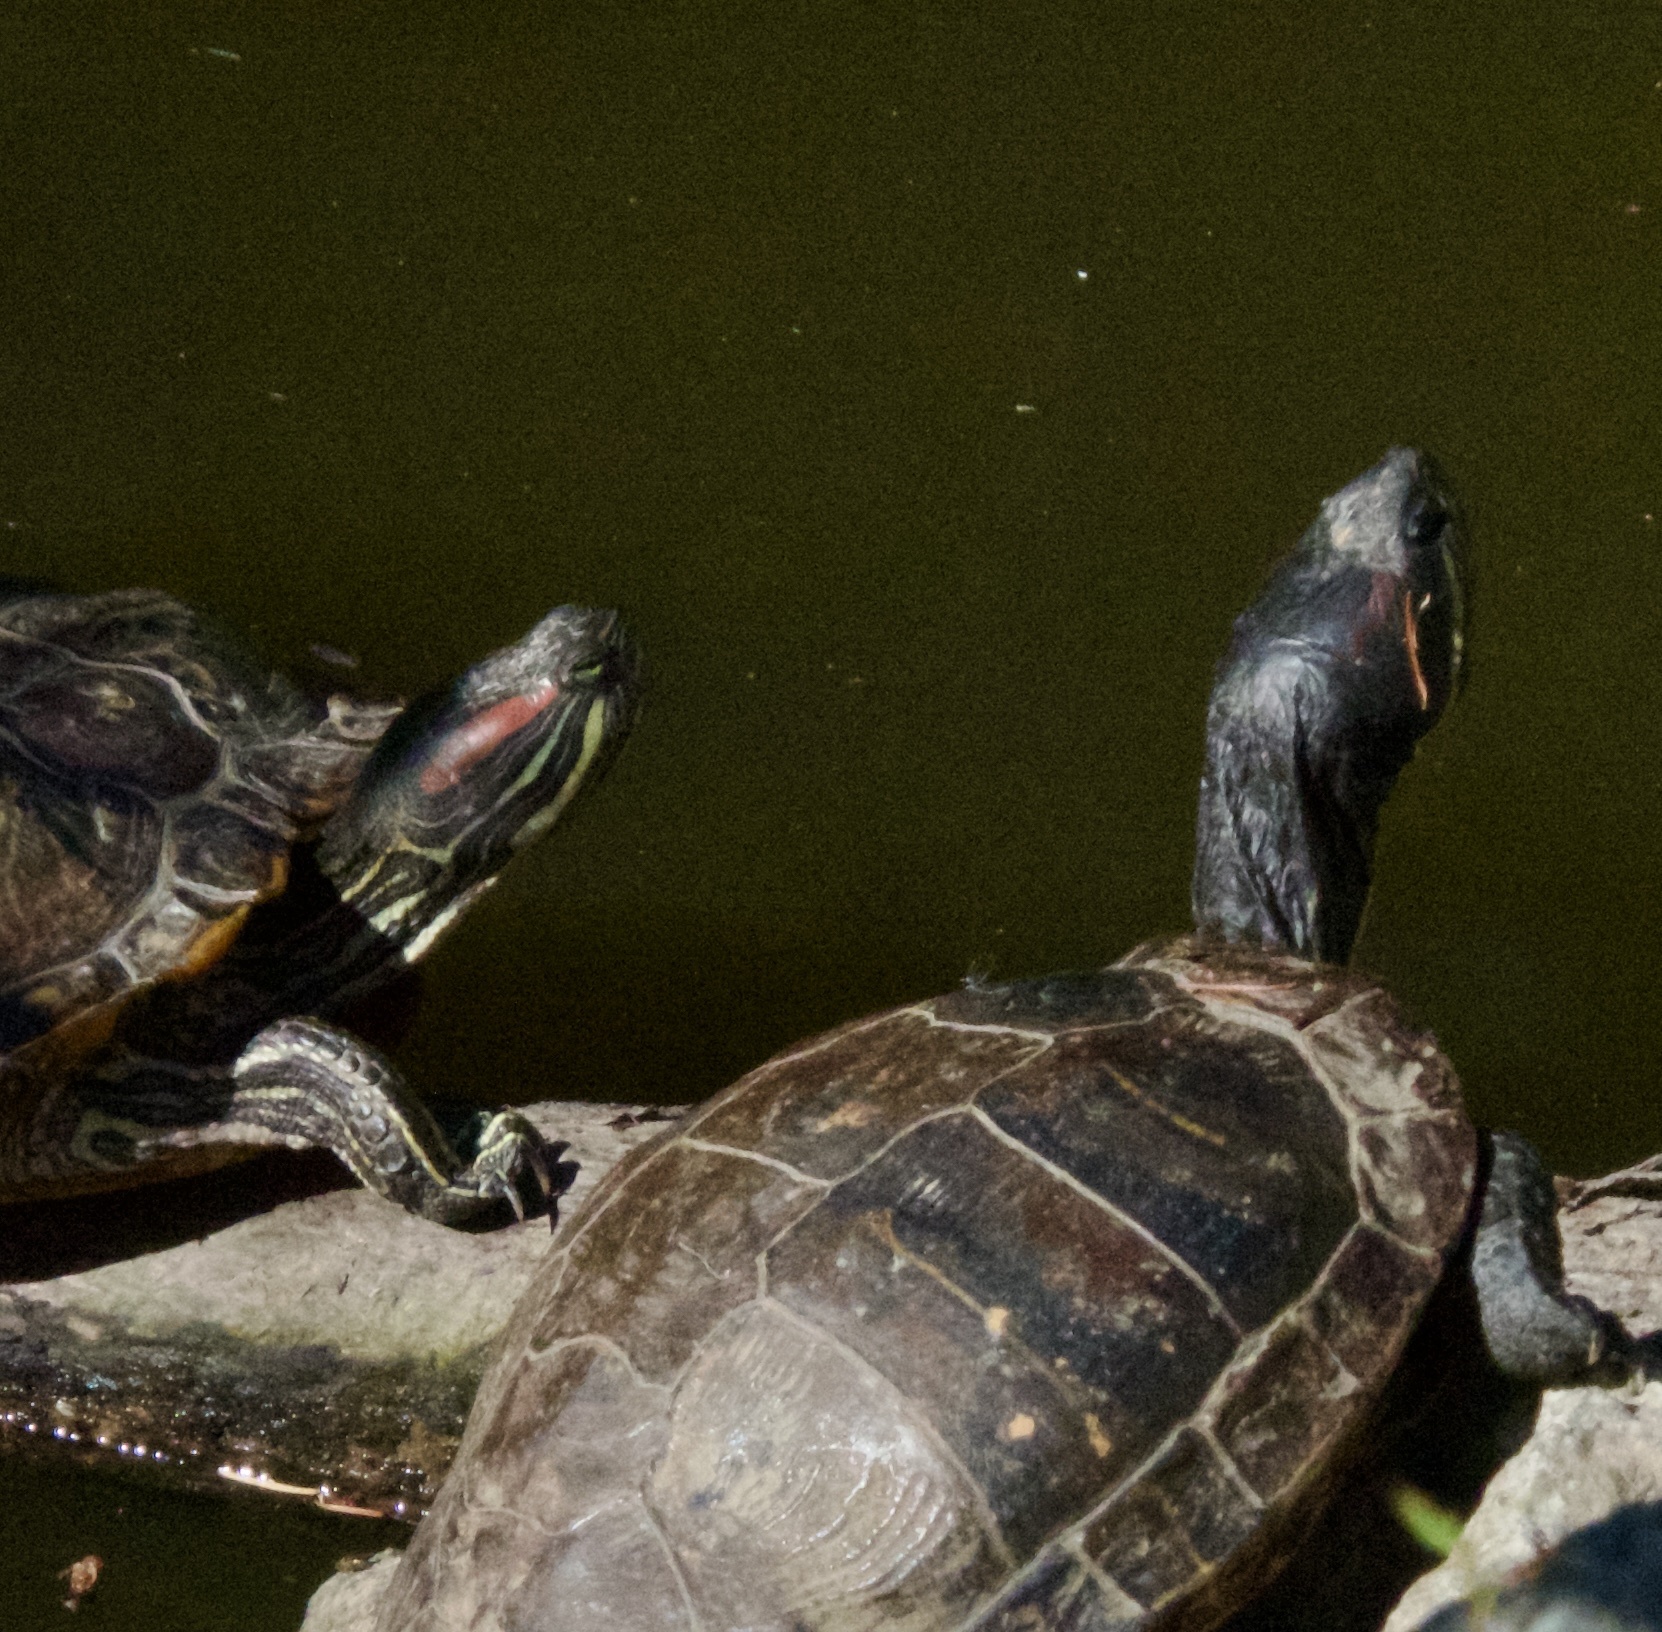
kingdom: Animalia
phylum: Chordata
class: Testudines
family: Emydidae
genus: Trachemys
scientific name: Trachemys scripta
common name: Slider
